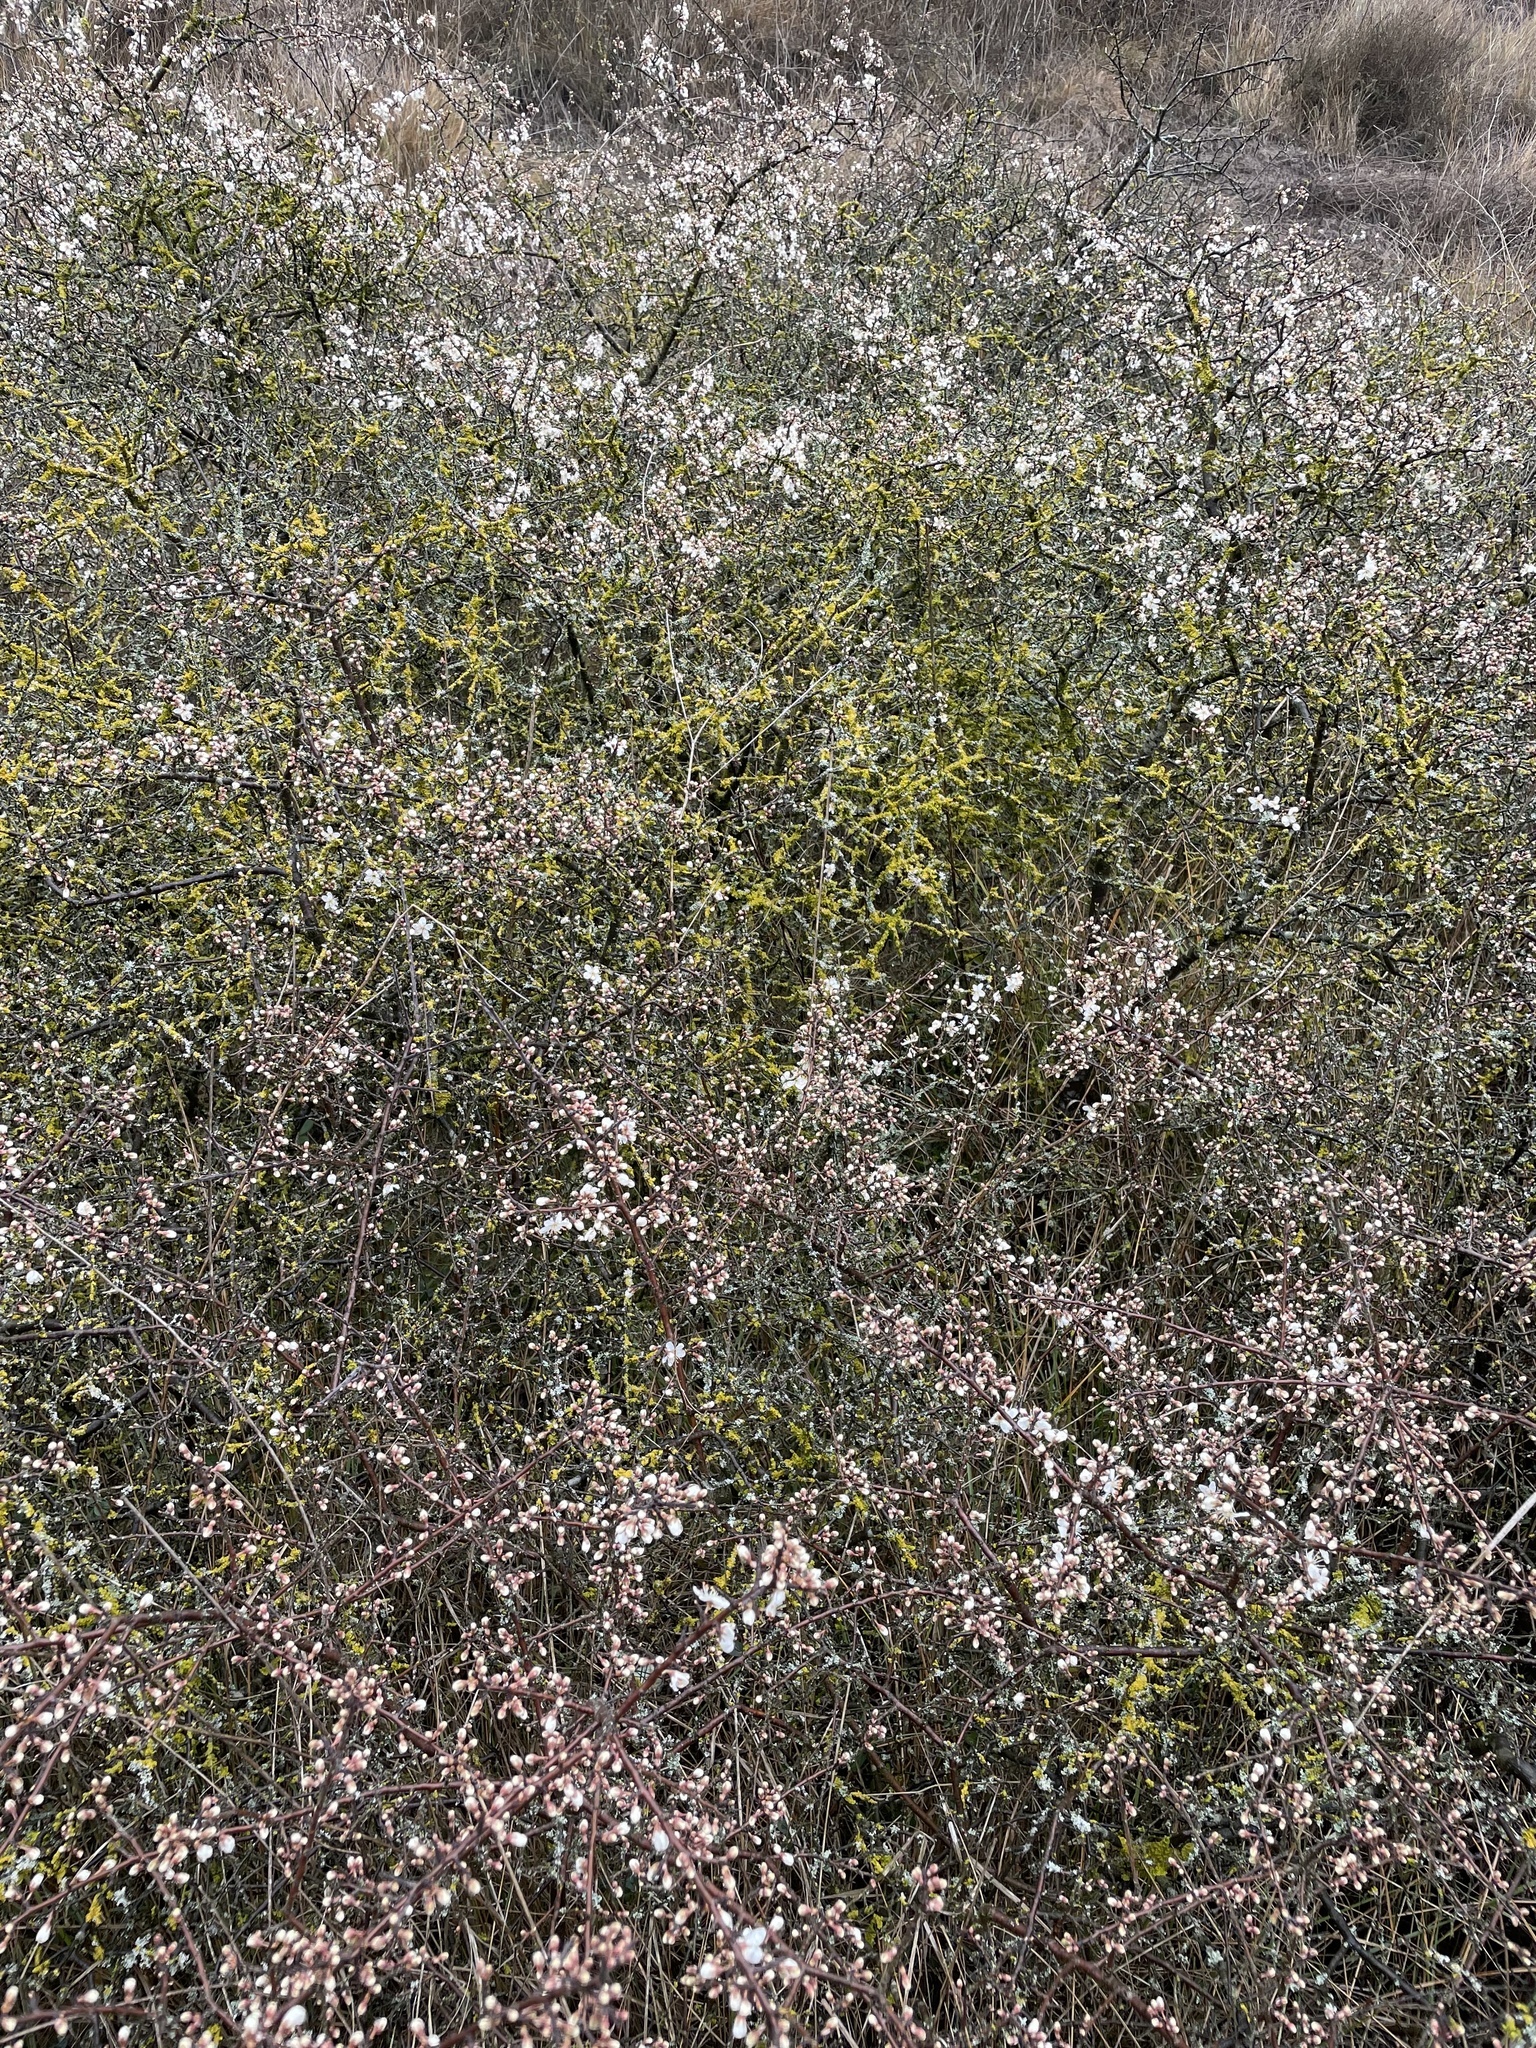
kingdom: Plantae
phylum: Tracheophyta
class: Magnoliopsida
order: Rosales
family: Rosaceae
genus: Prunus
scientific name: Prunus spinosa
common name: Blackthorn
